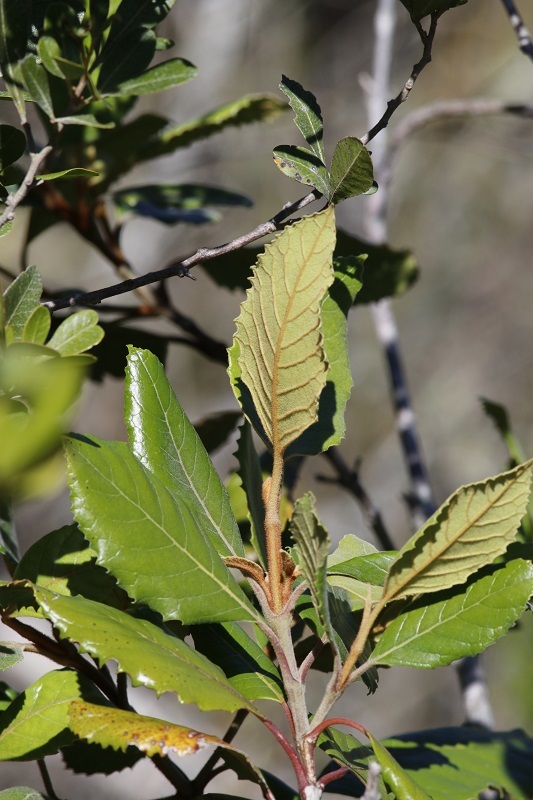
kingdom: Plantae
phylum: Tracheophyta
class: Magnoliopsida
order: Cornales
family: Curtisiaceae
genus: Curtisia
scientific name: Curtisia dentata
